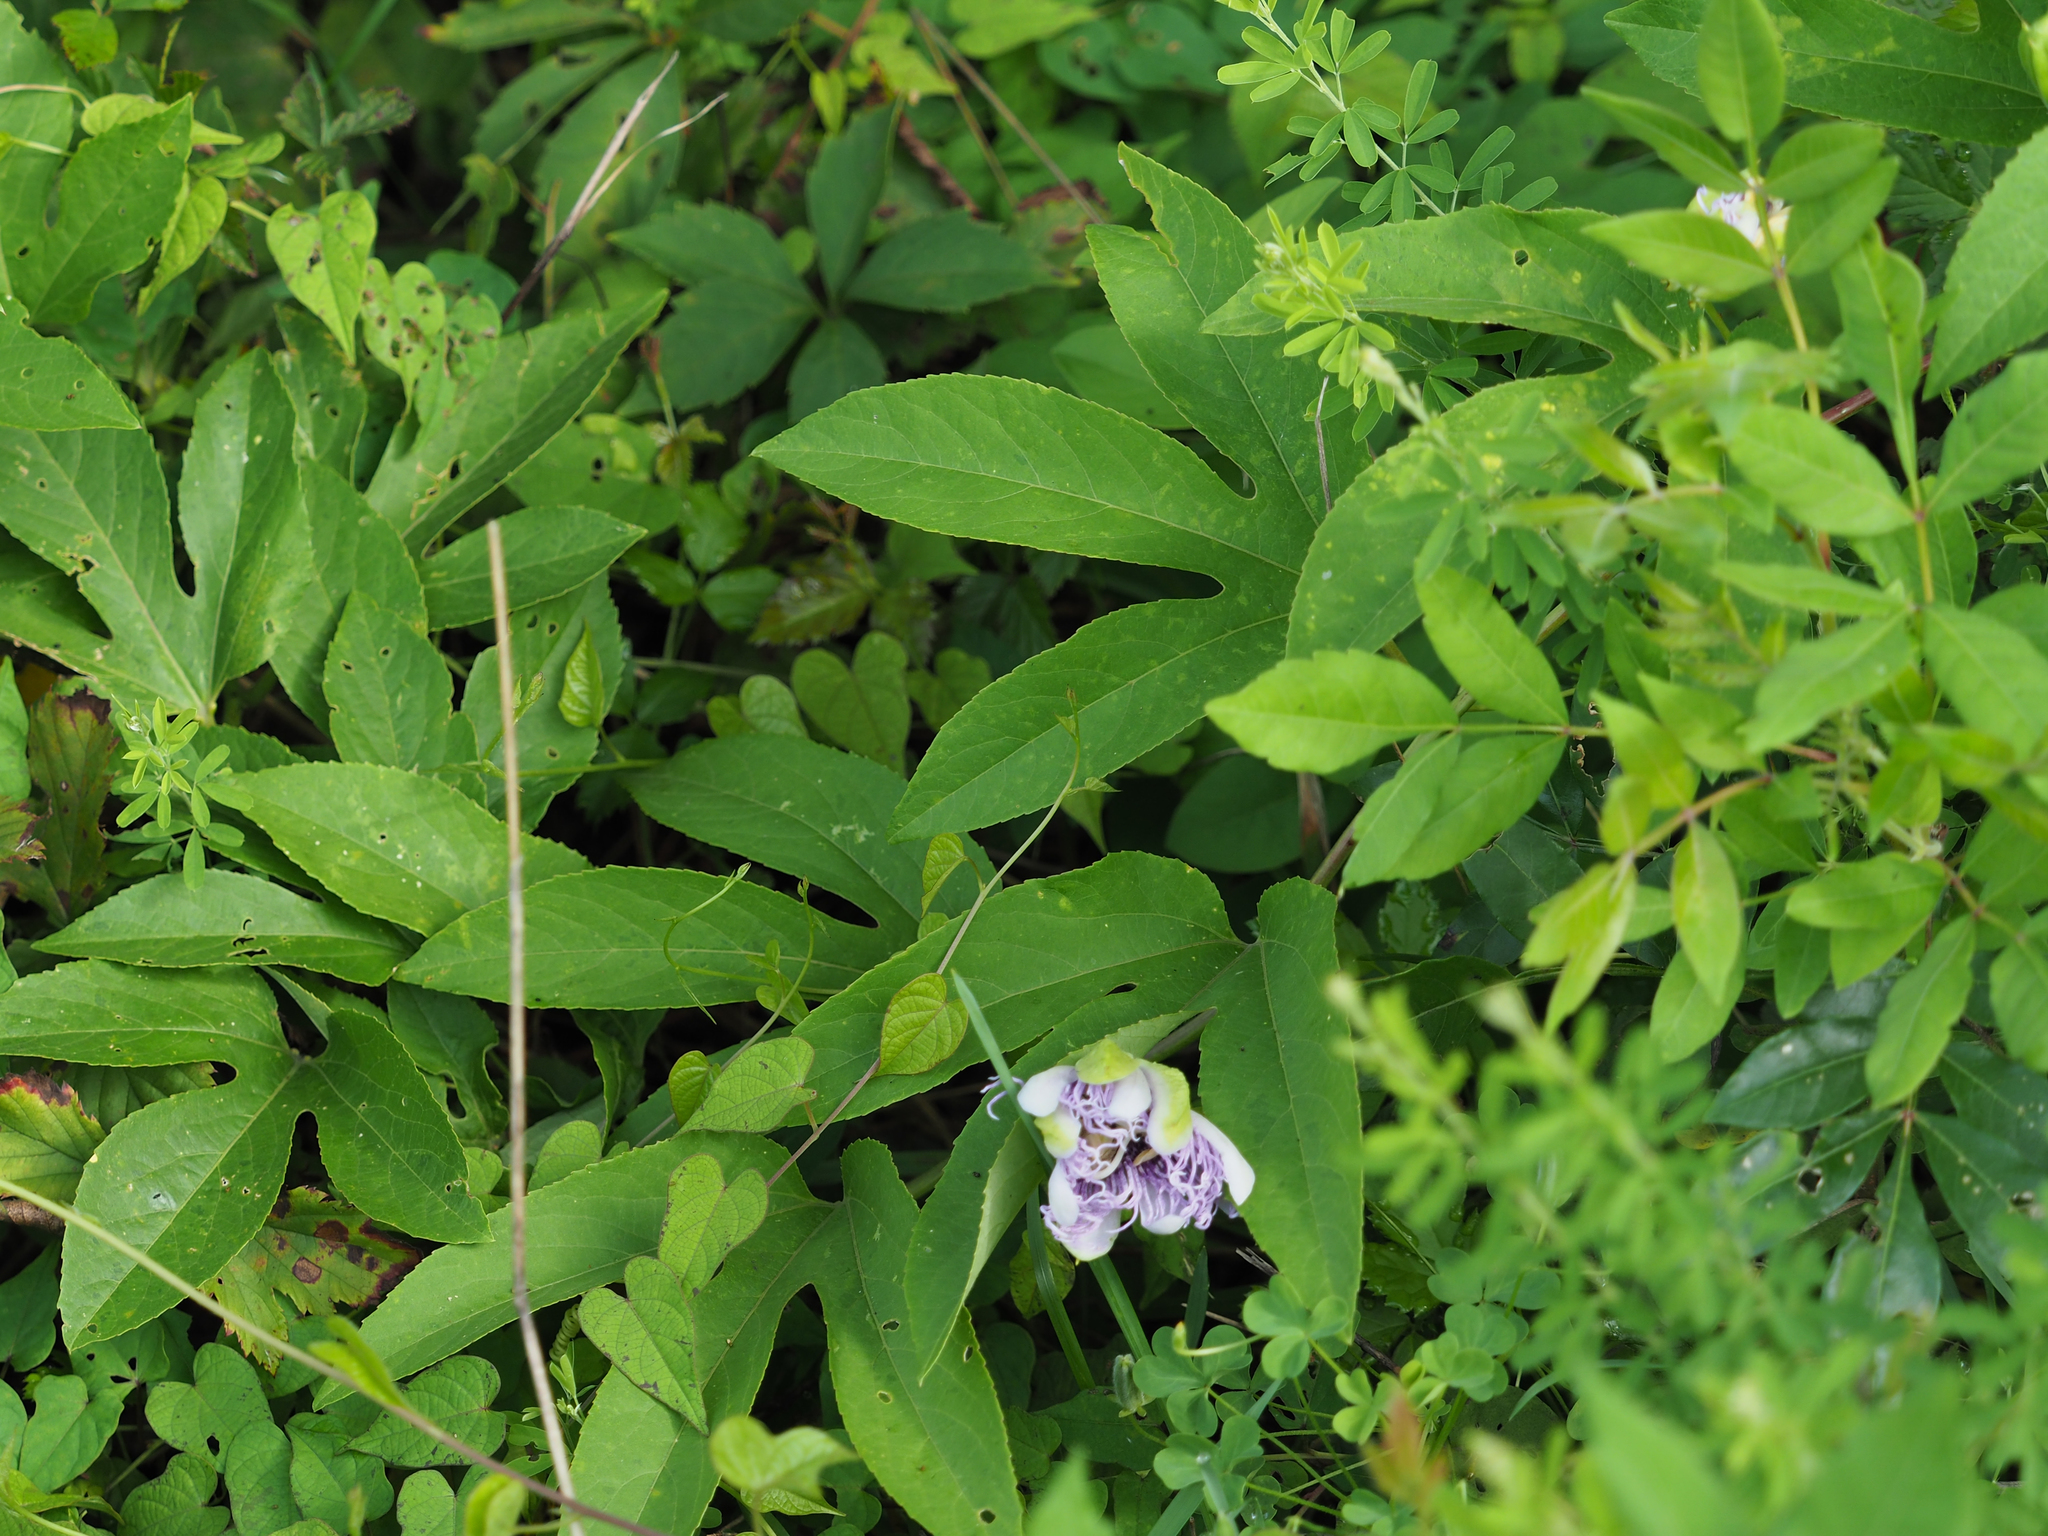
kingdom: Plantae
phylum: Tracheophyta
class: Magnoliopsida
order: Malpighiales
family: Passifloraceae
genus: Passiflora
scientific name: Passiflora incarnata
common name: Apricot-vine
